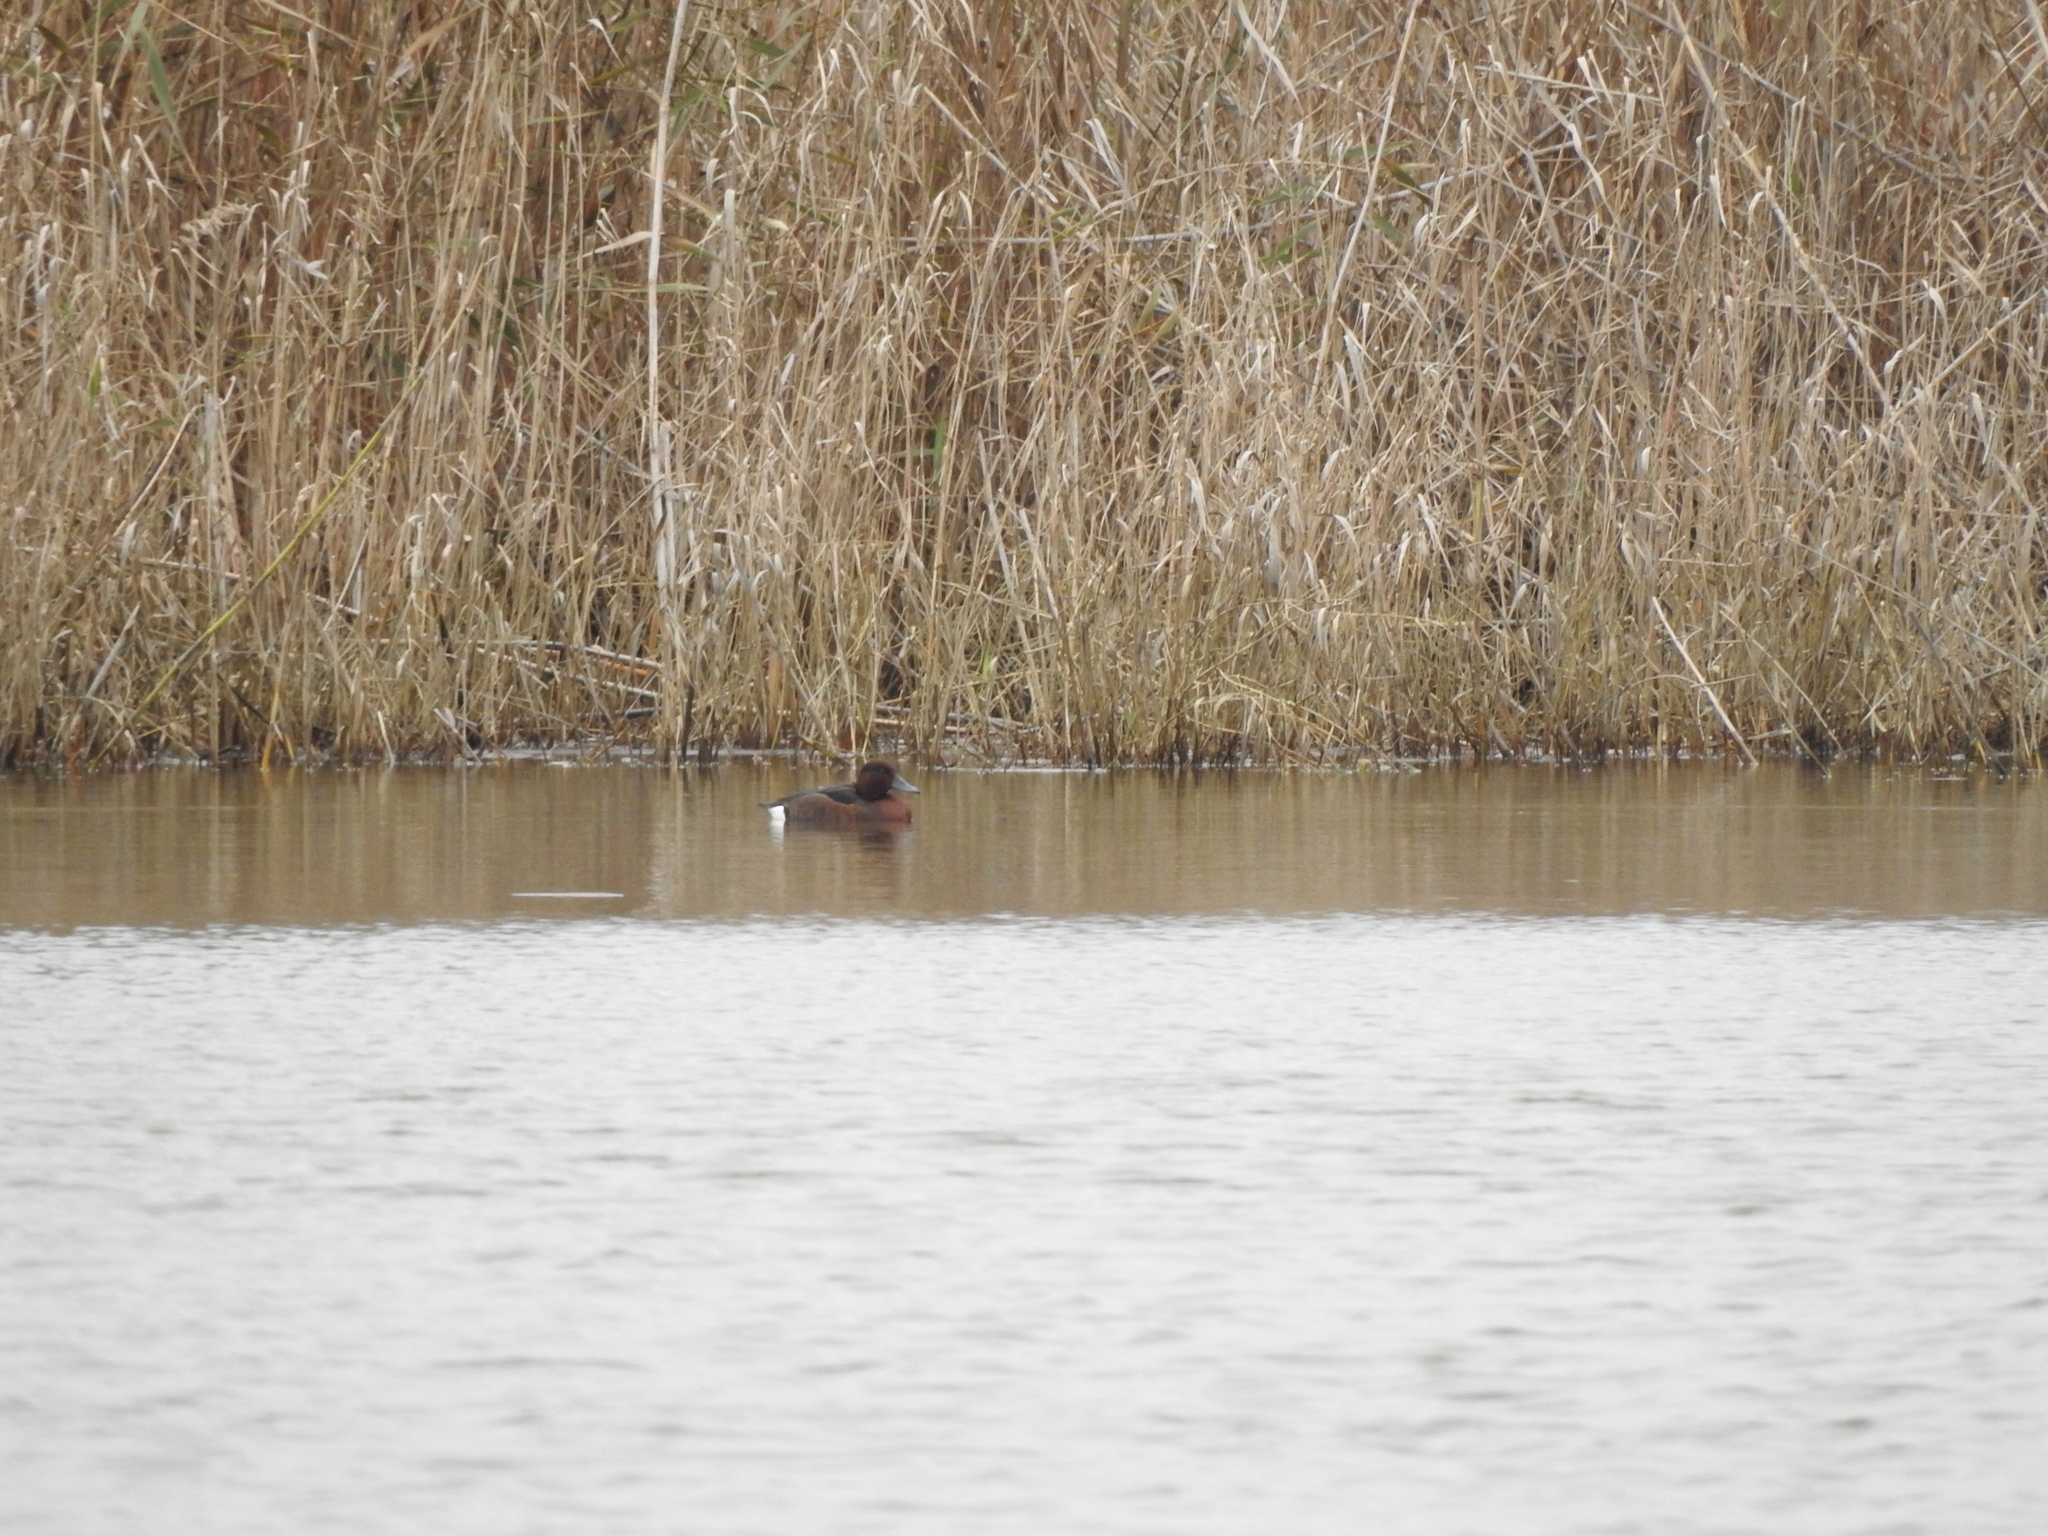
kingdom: Animalia
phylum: Chordata
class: Aves
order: Anseriformes
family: Anatidae
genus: Aythya
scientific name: Aythya nyroca
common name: Ferruginous duck
